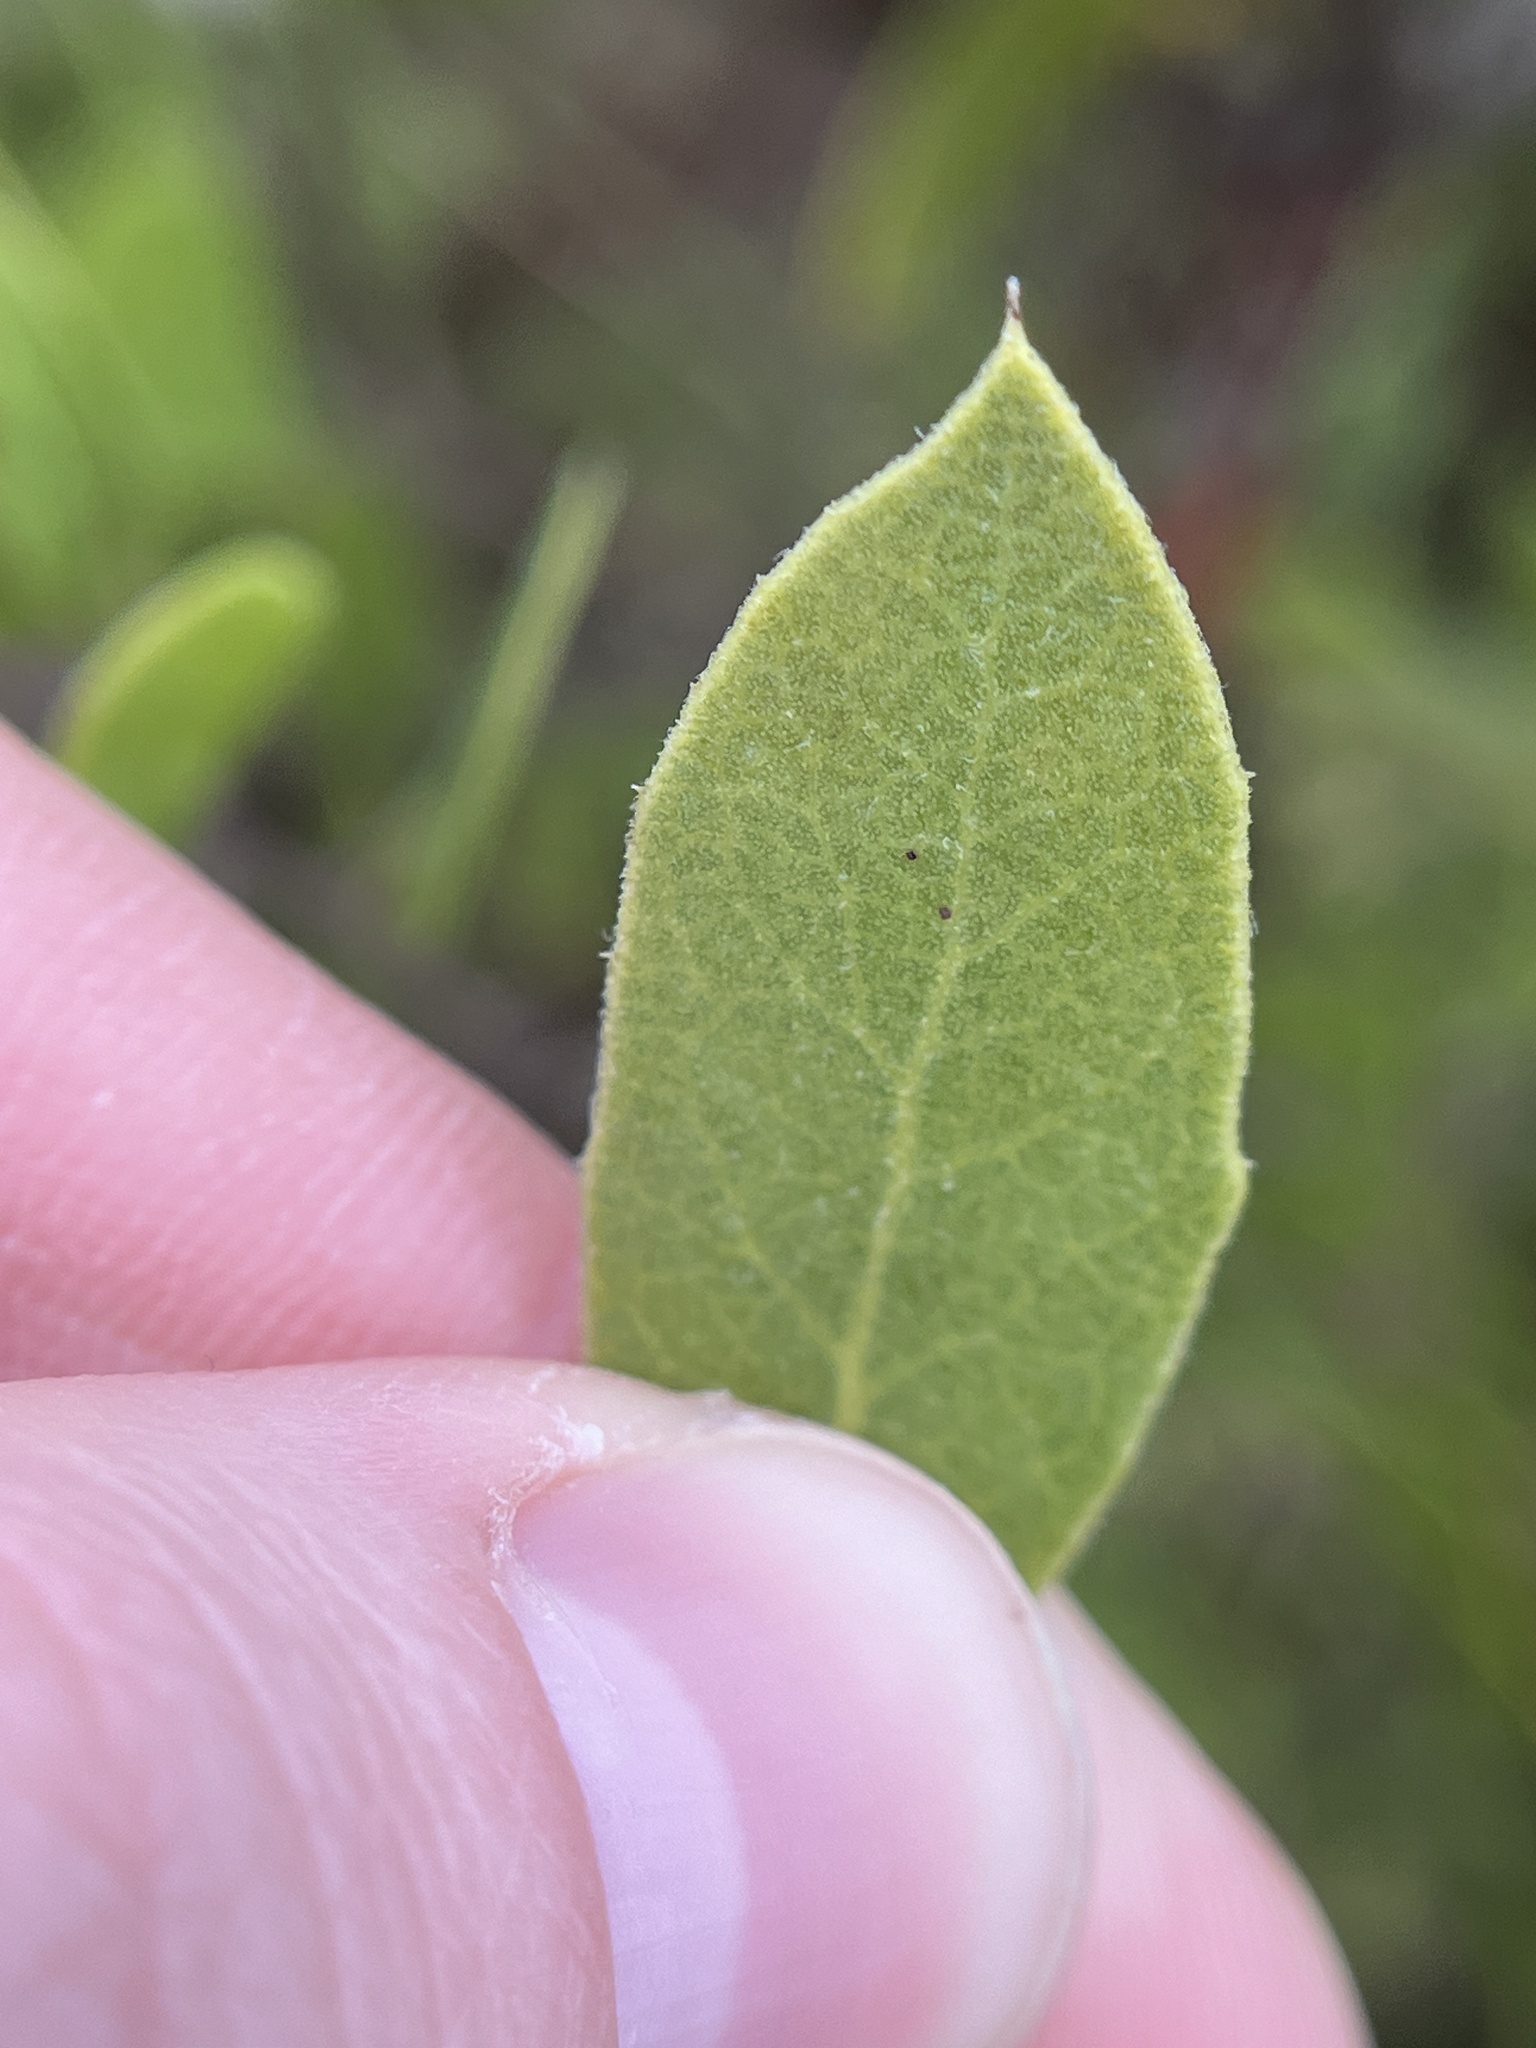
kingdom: Plantae
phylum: Tracheophyta
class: Magnoliopsida
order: Ericales
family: Ericaceae
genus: Arctostaphylos
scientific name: Arctostaphylos rudis
